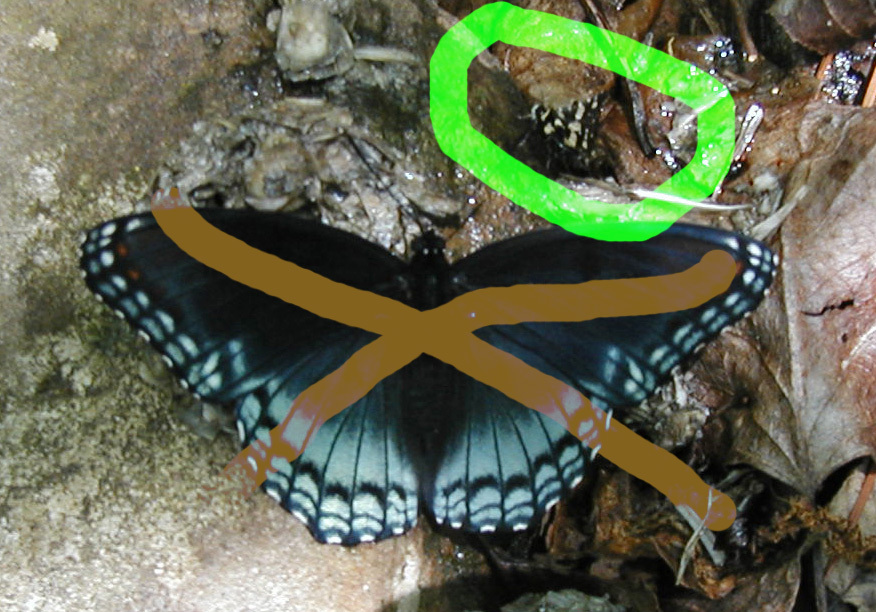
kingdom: Animalia
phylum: Arthropoda
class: Insecta
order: Lepidoptera
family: Thyrididae
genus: Pseudothyris
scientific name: Pseudothyris sepulchralis
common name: Mournful thyris moth
